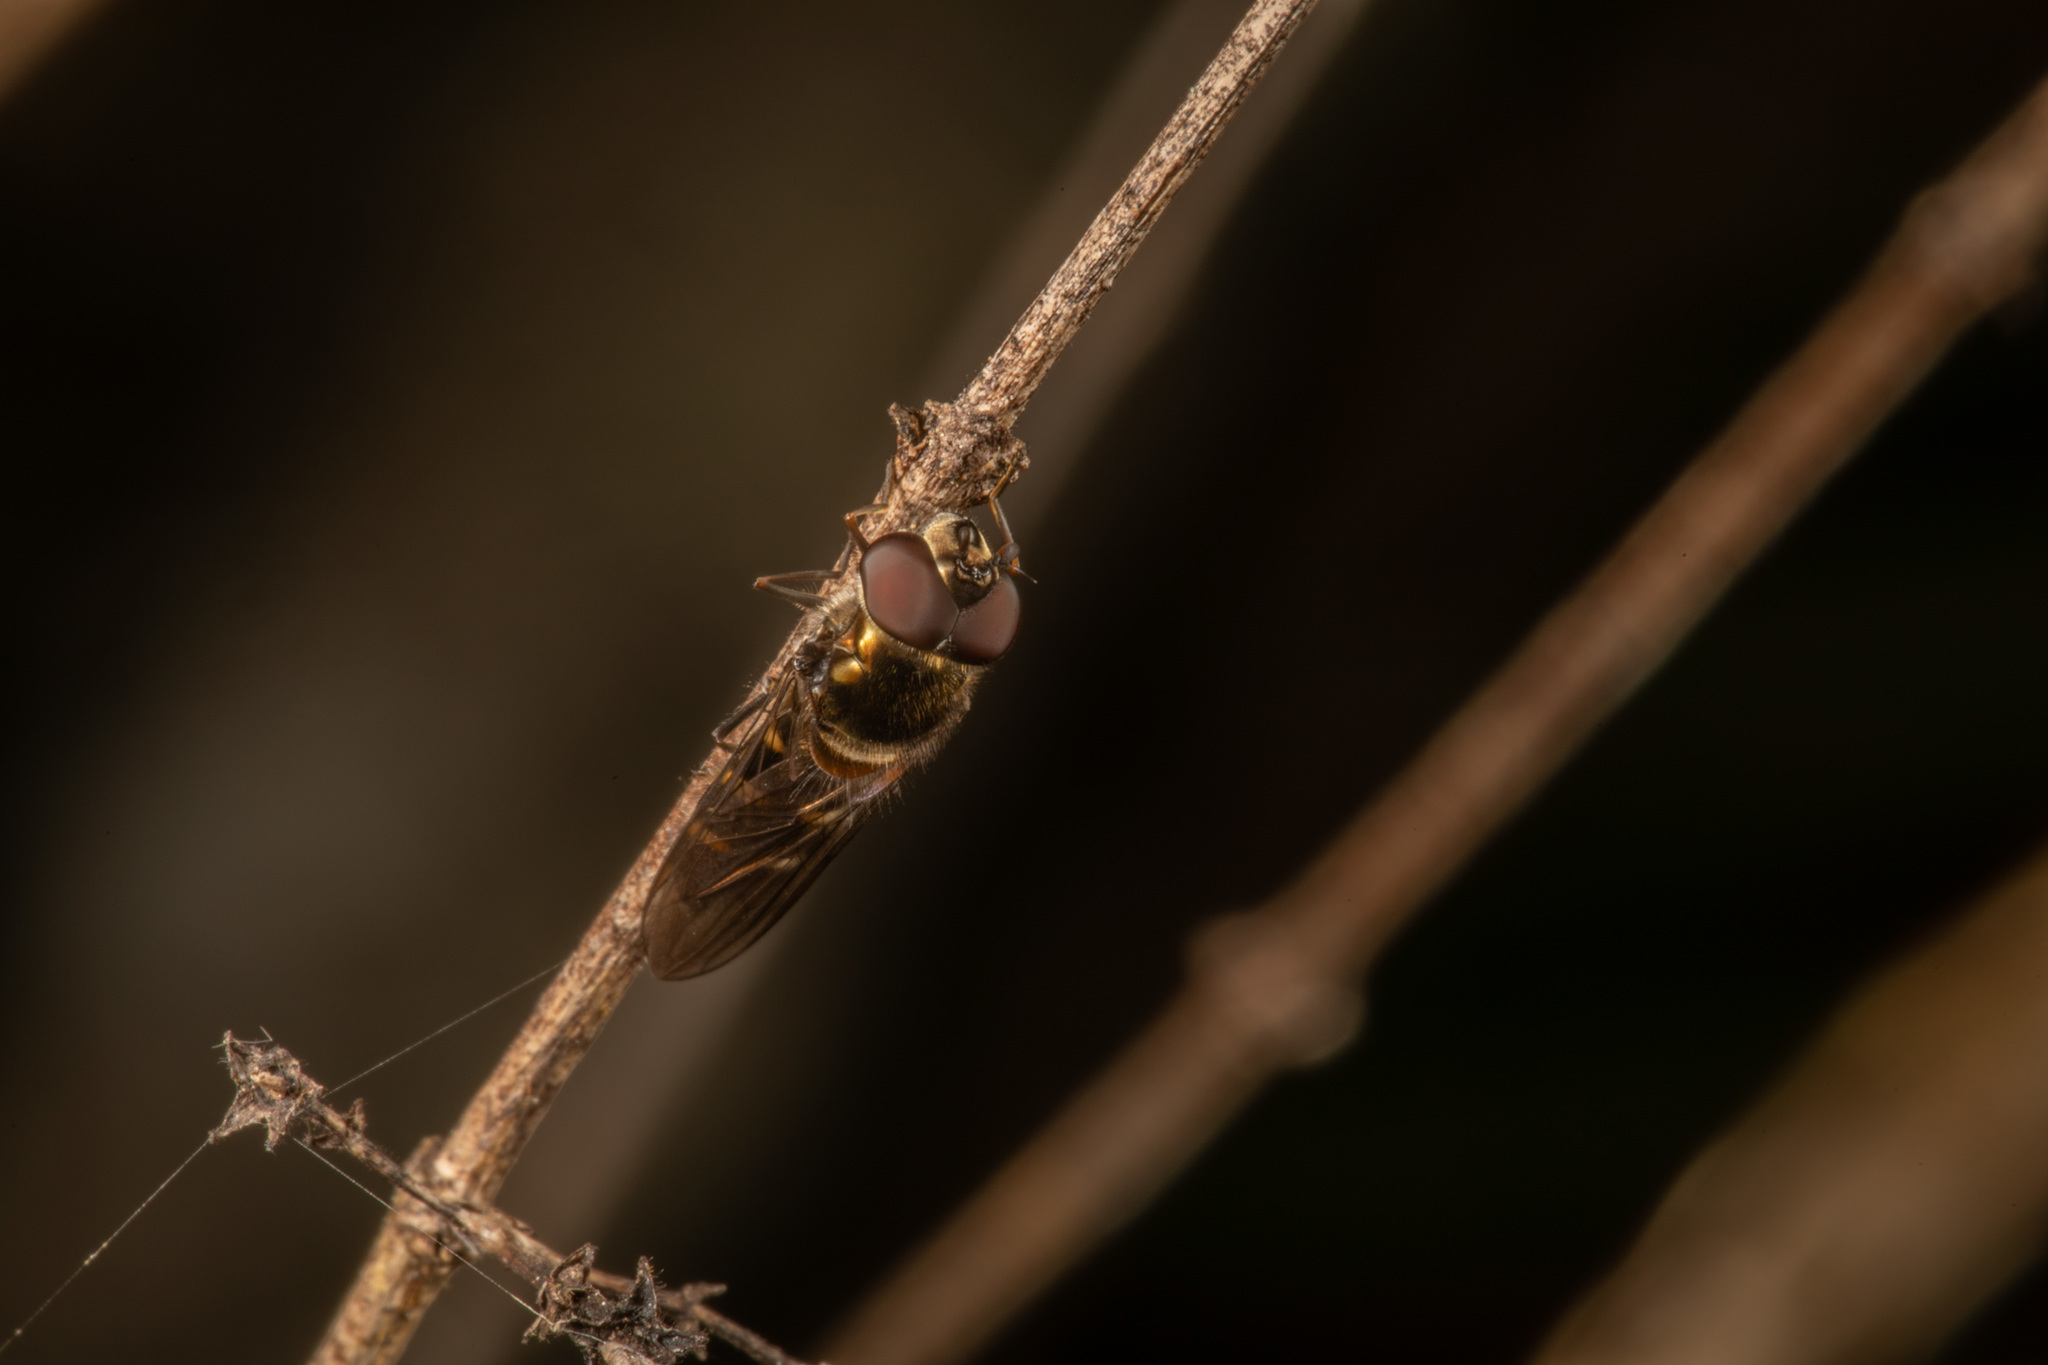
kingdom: Animalia
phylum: Arthropoda
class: Insecta
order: Diptera
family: Syrphidae
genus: Melanostoma
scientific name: Melanostoma fasciatum
